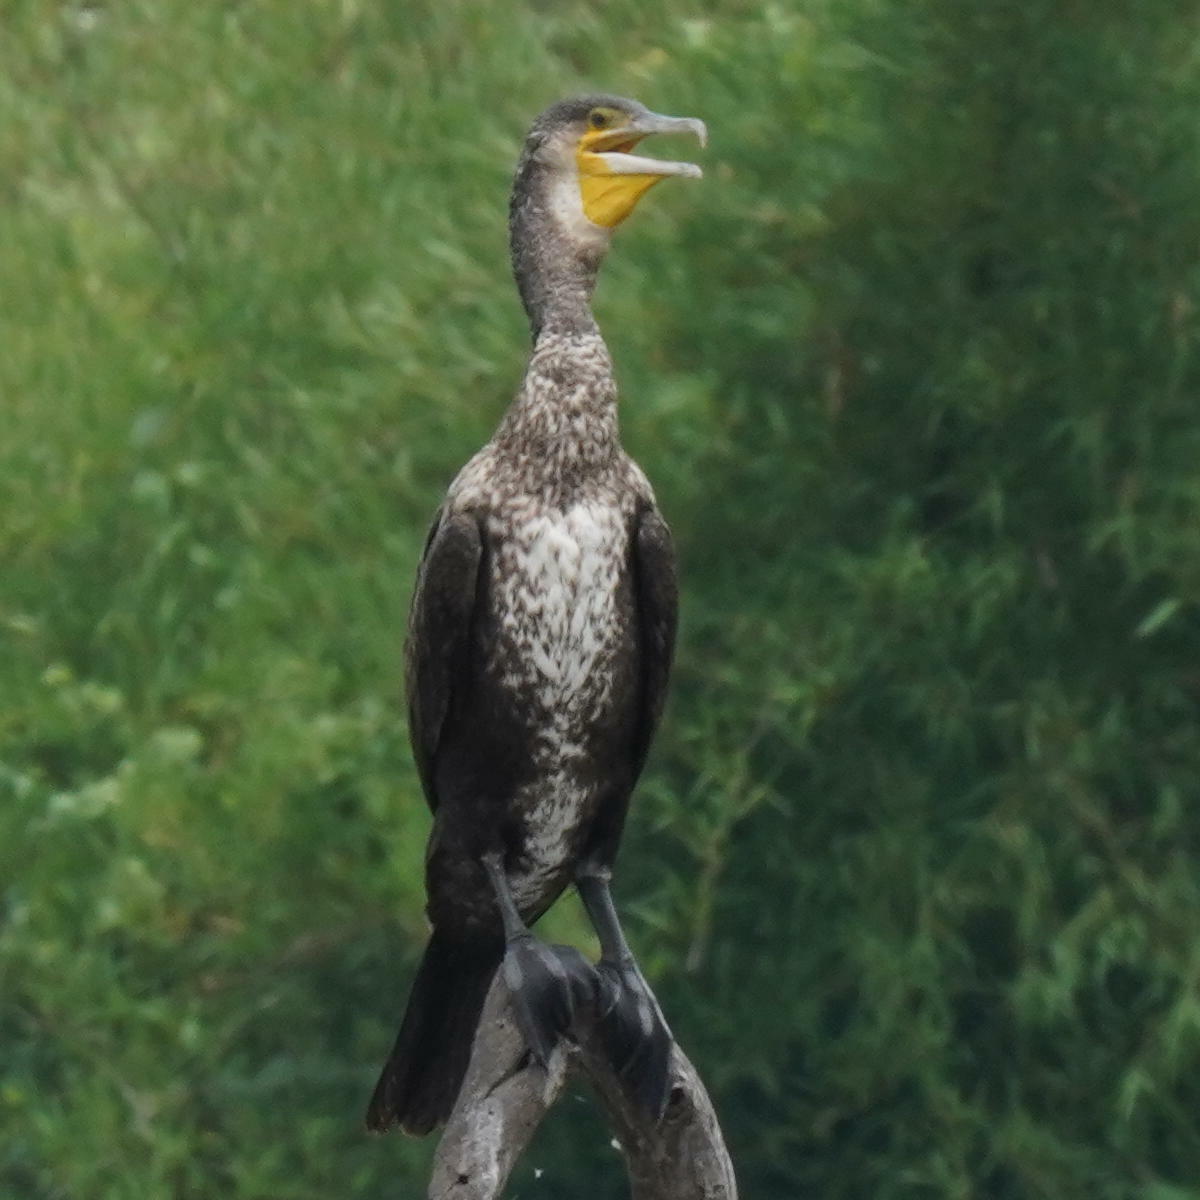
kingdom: Animalia
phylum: Chordata
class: Aves
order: Suliformes
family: Phalacrocoracidae
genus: Phalacrocorax
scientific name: Phalacrocorax carbo
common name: Great cormorant
